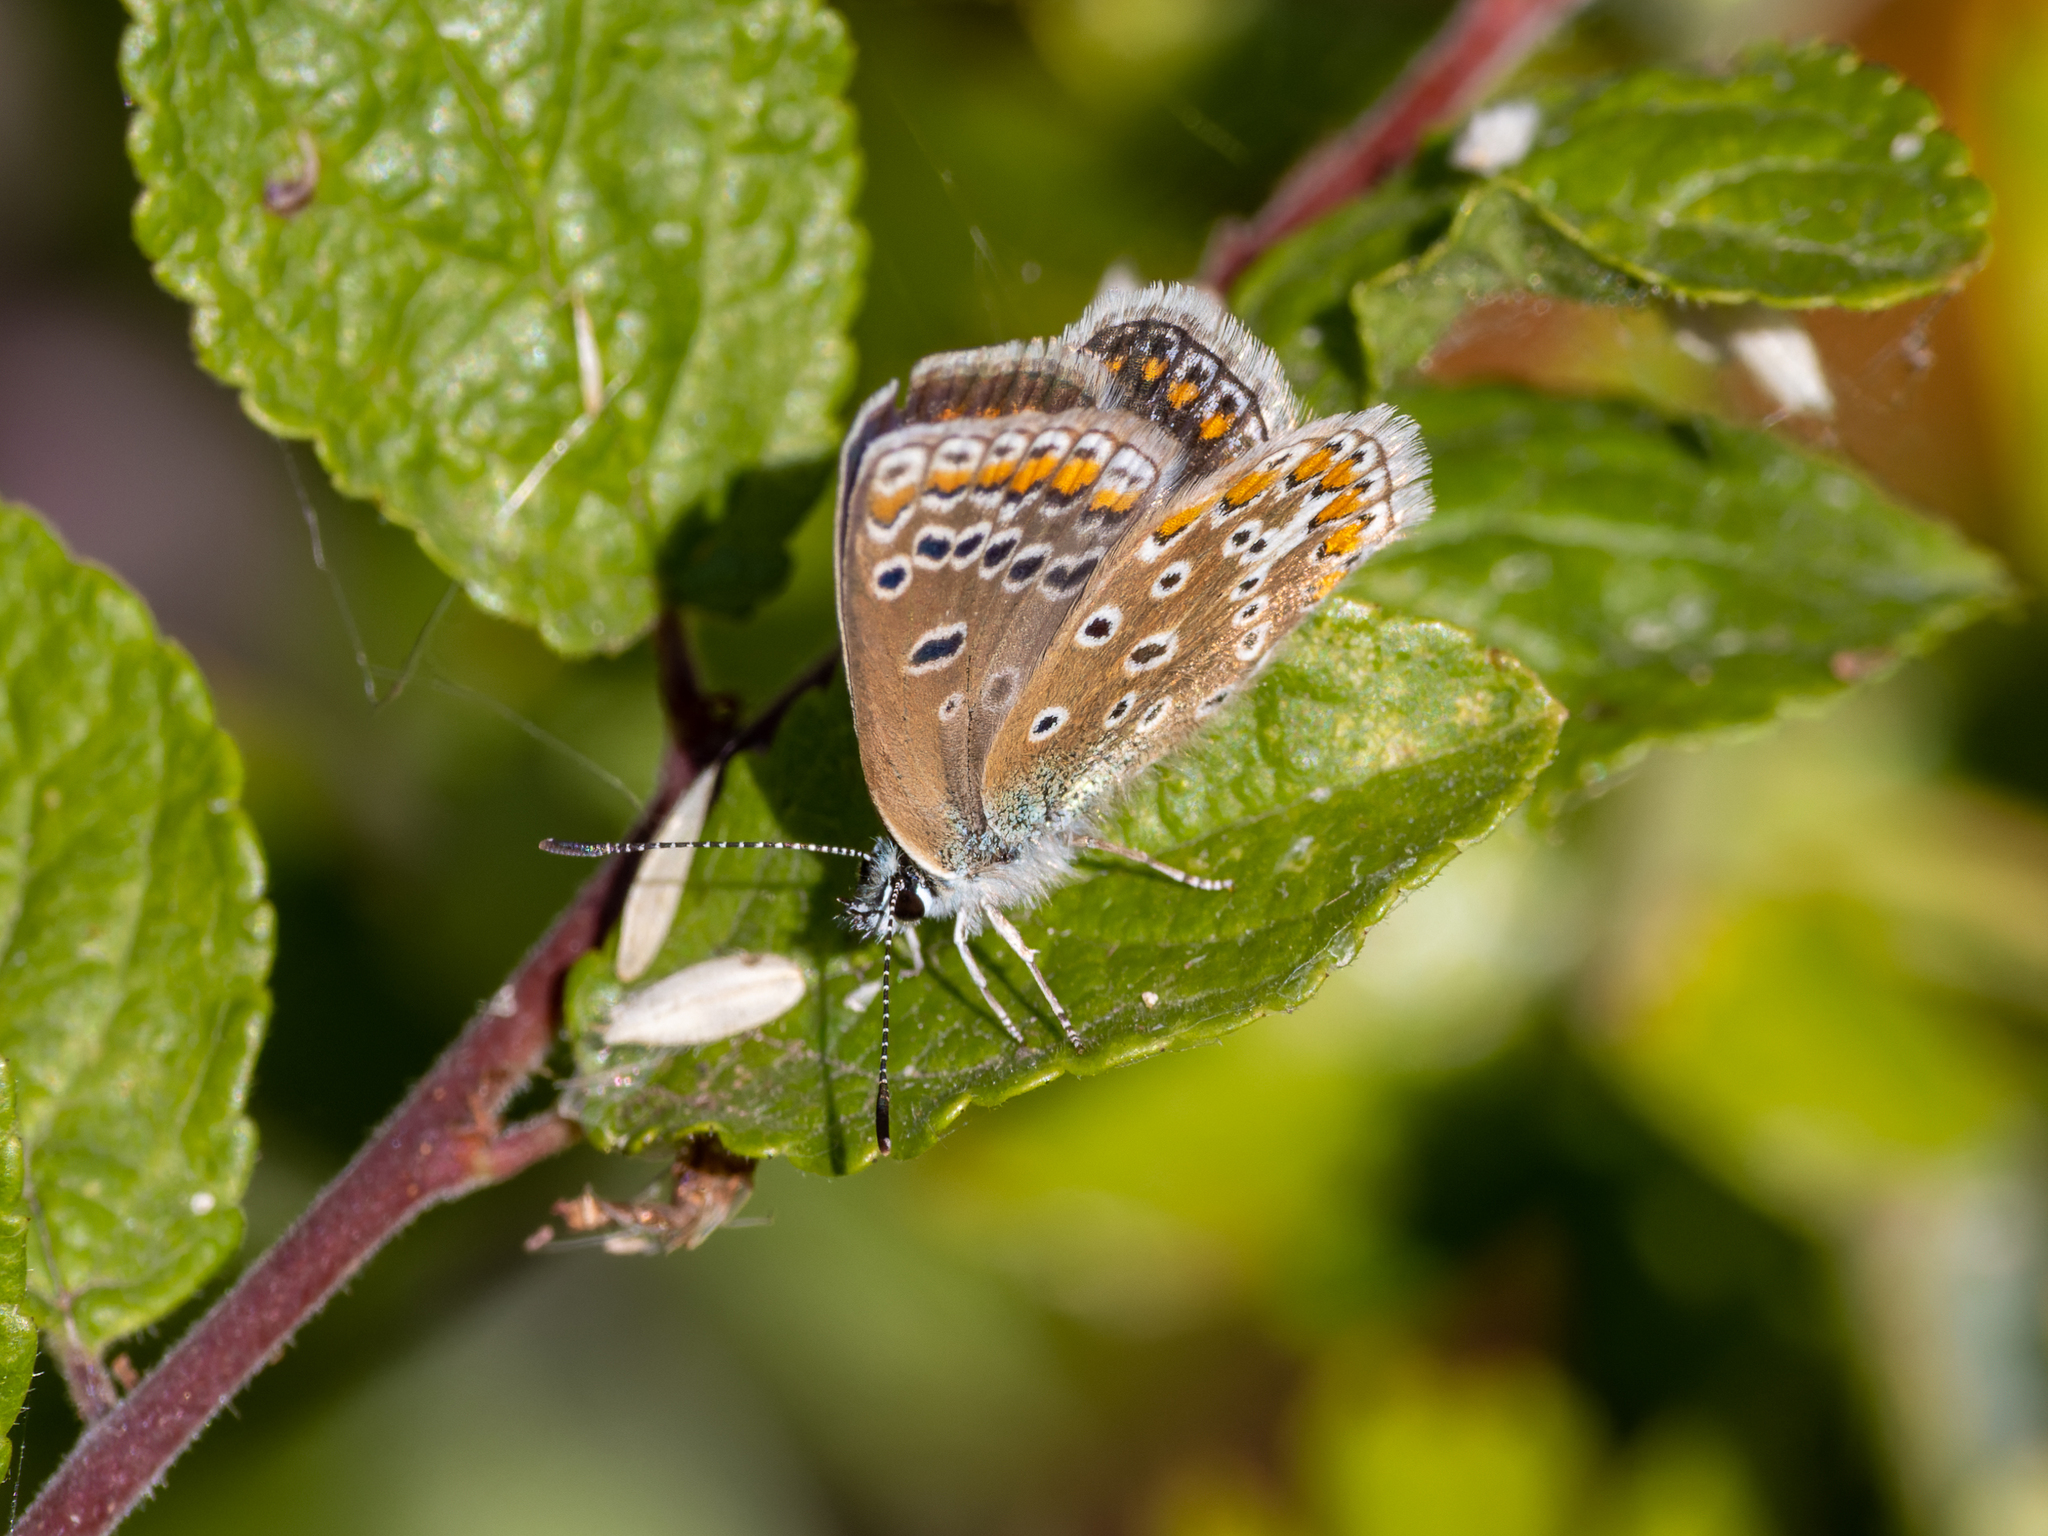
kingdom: Animalia
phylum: Arthropoda
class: Insecta
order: Lepidoptera
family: Lycaenidae
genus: Polyommatus
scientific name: Polyommatus icarus
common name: Common blue
